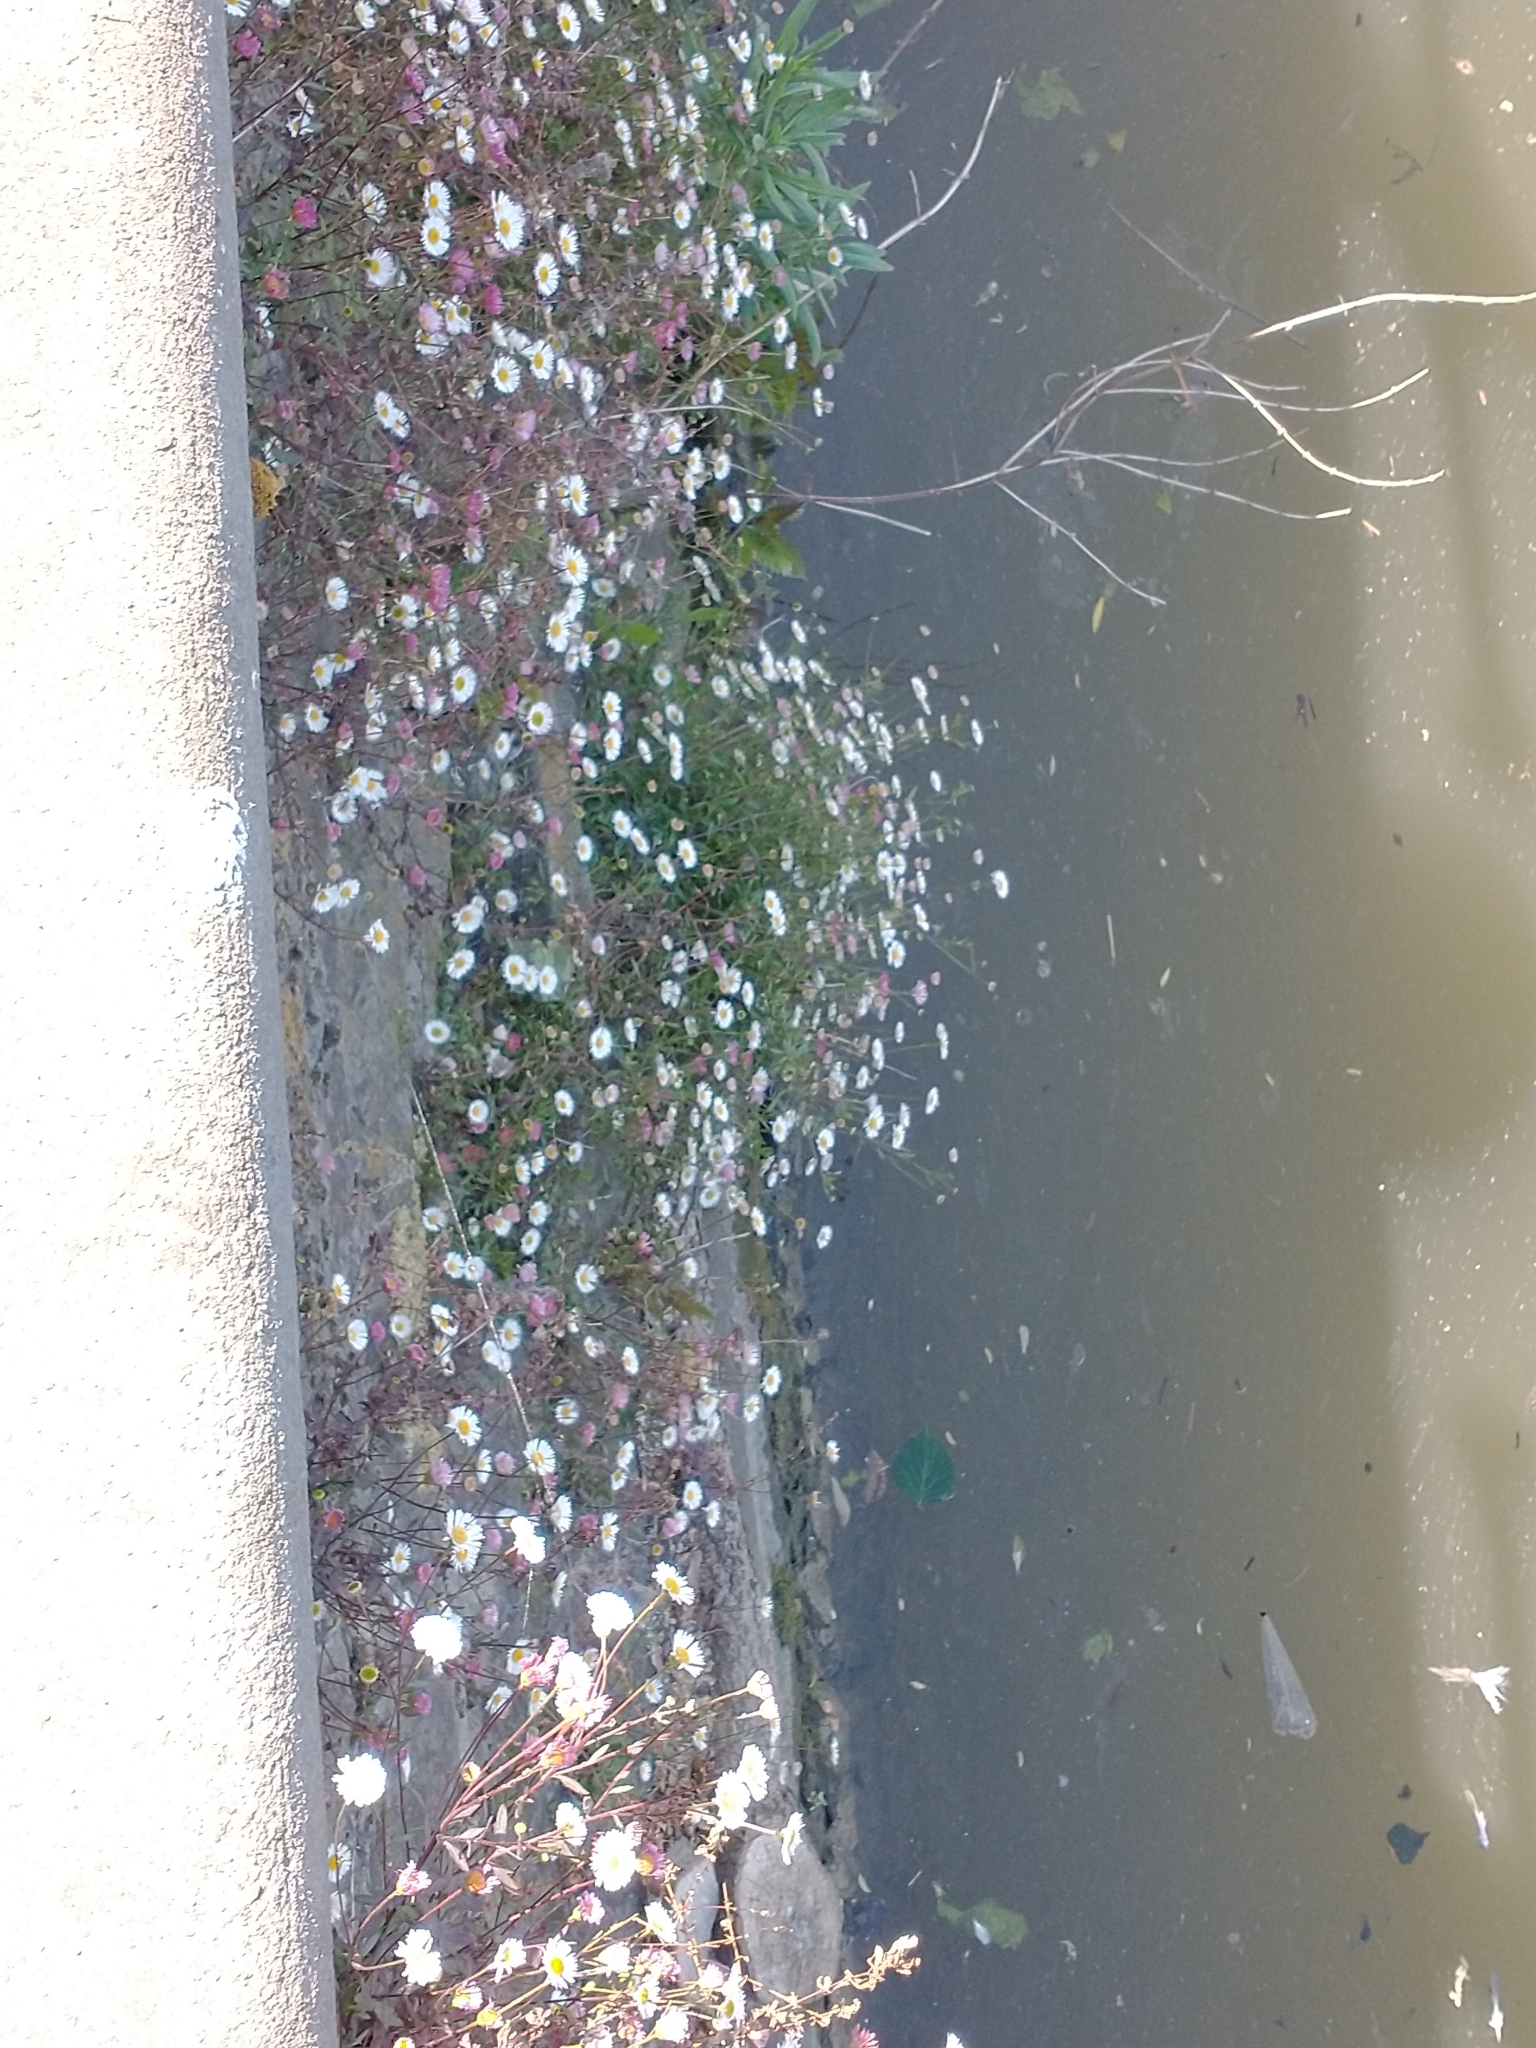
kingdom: Plantae
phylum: Tracheophyta
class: Magnoliopsida
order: Asterales
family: Asteraceae
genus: Erigeron
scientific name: Erigeron karvinskianus
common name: Mexican fleabane
